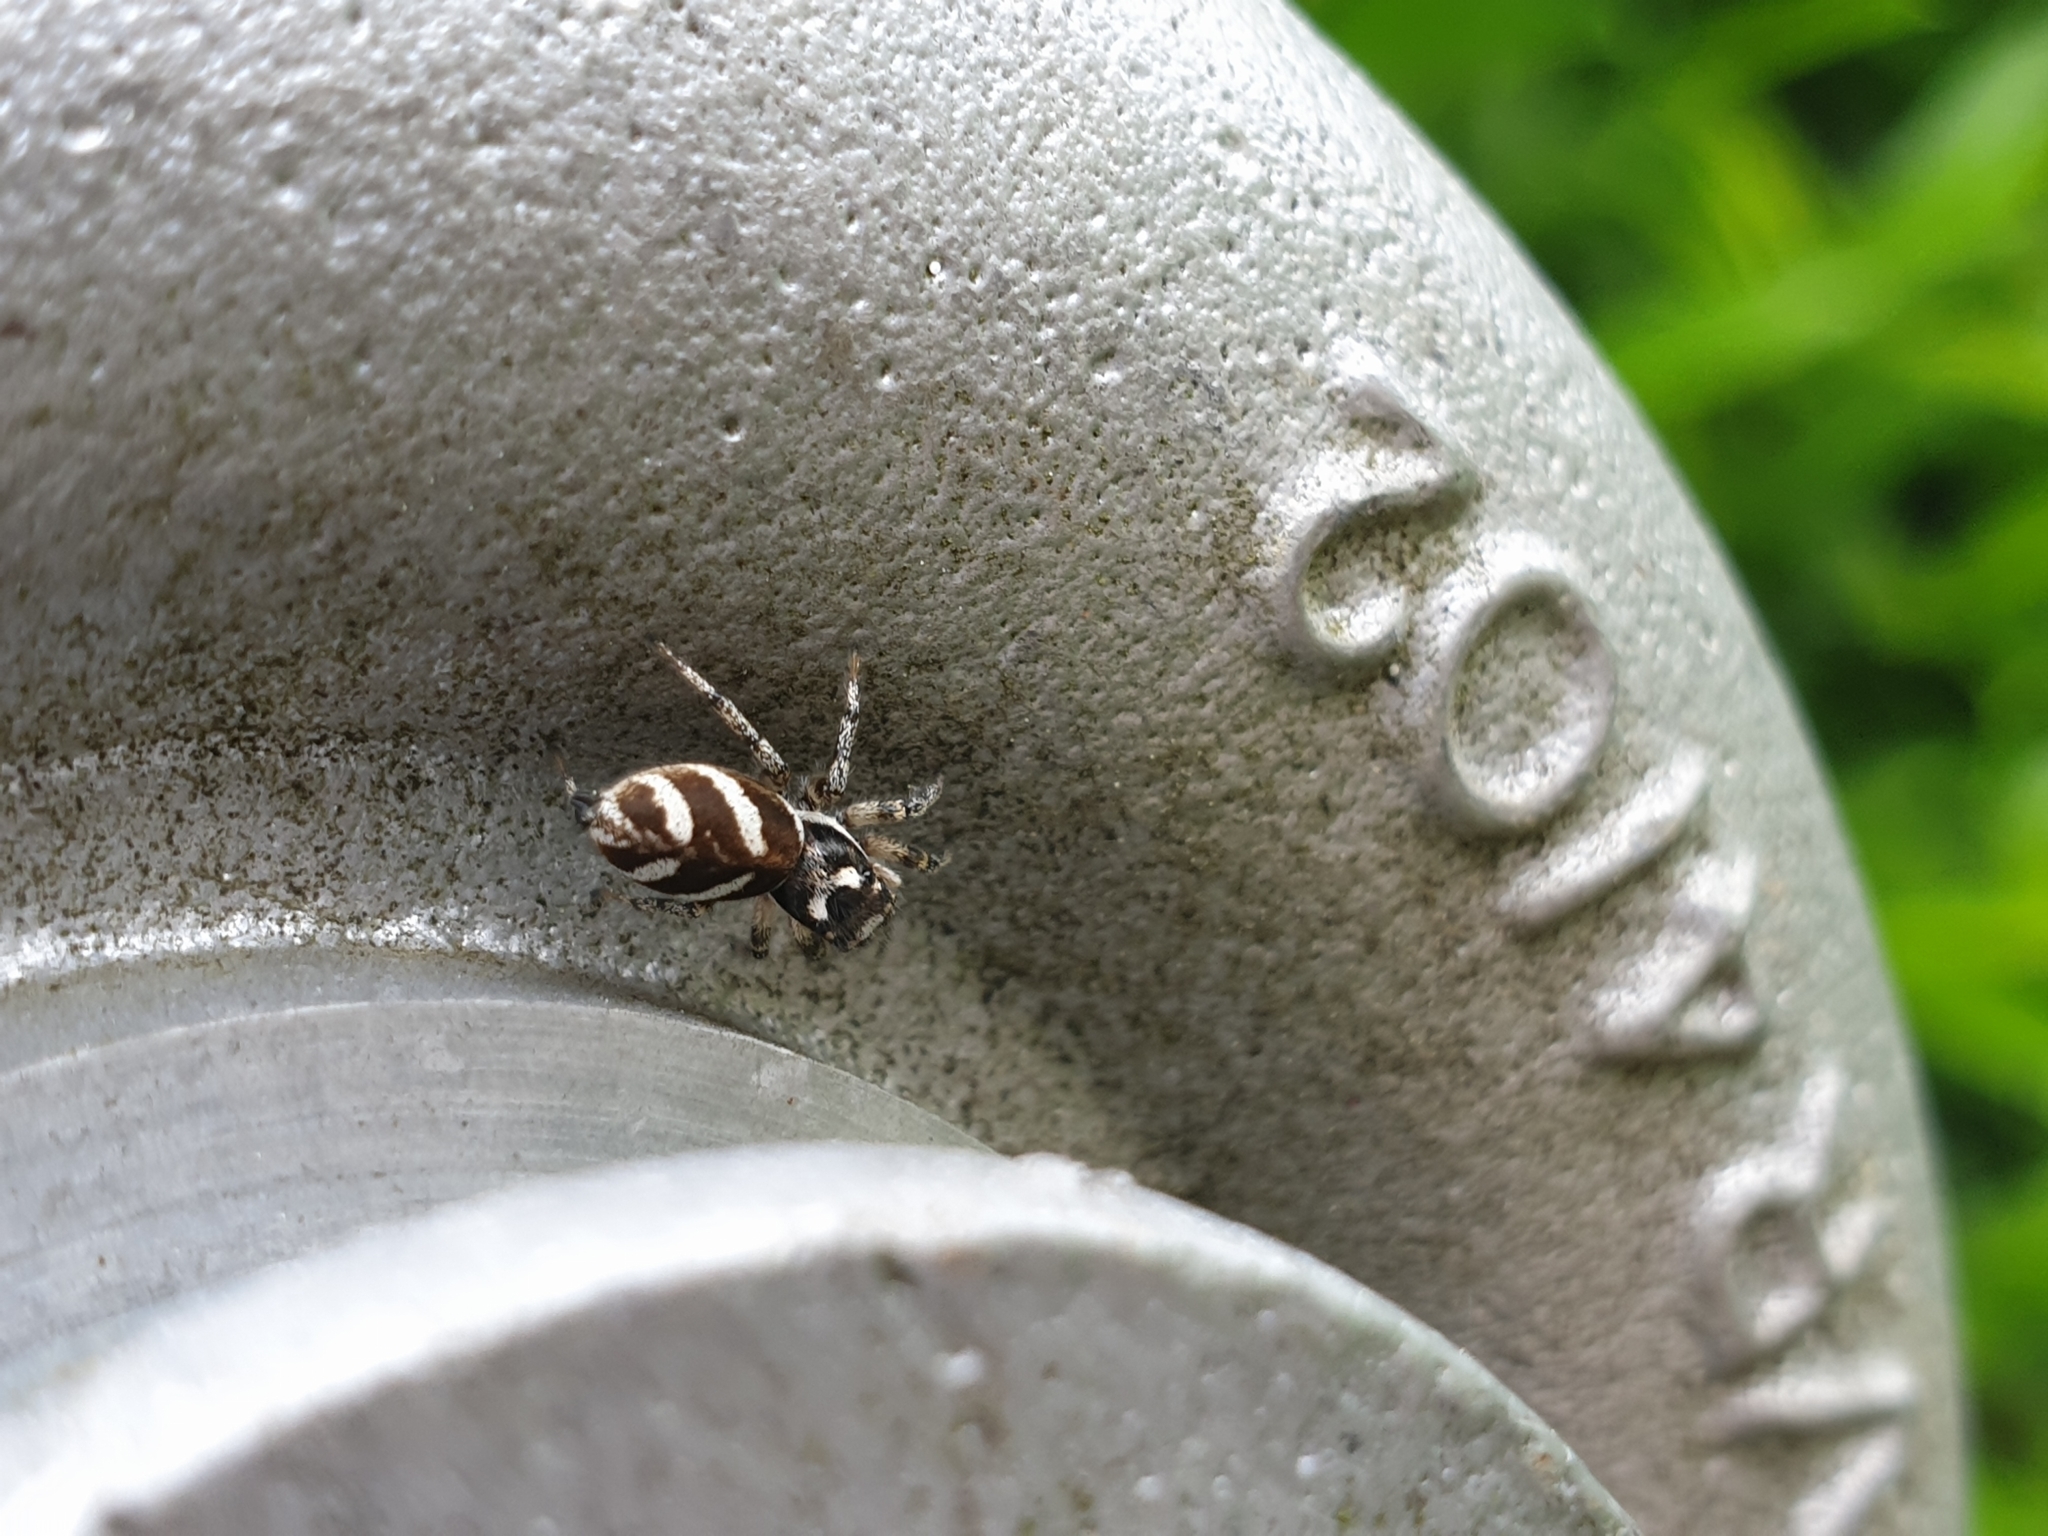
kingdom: Animalia
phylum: Arthropoda
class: Arachnida
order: Araneae
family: Salticidae
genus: Salticus
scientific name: Salticus scenicus
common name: Zebra jumper
